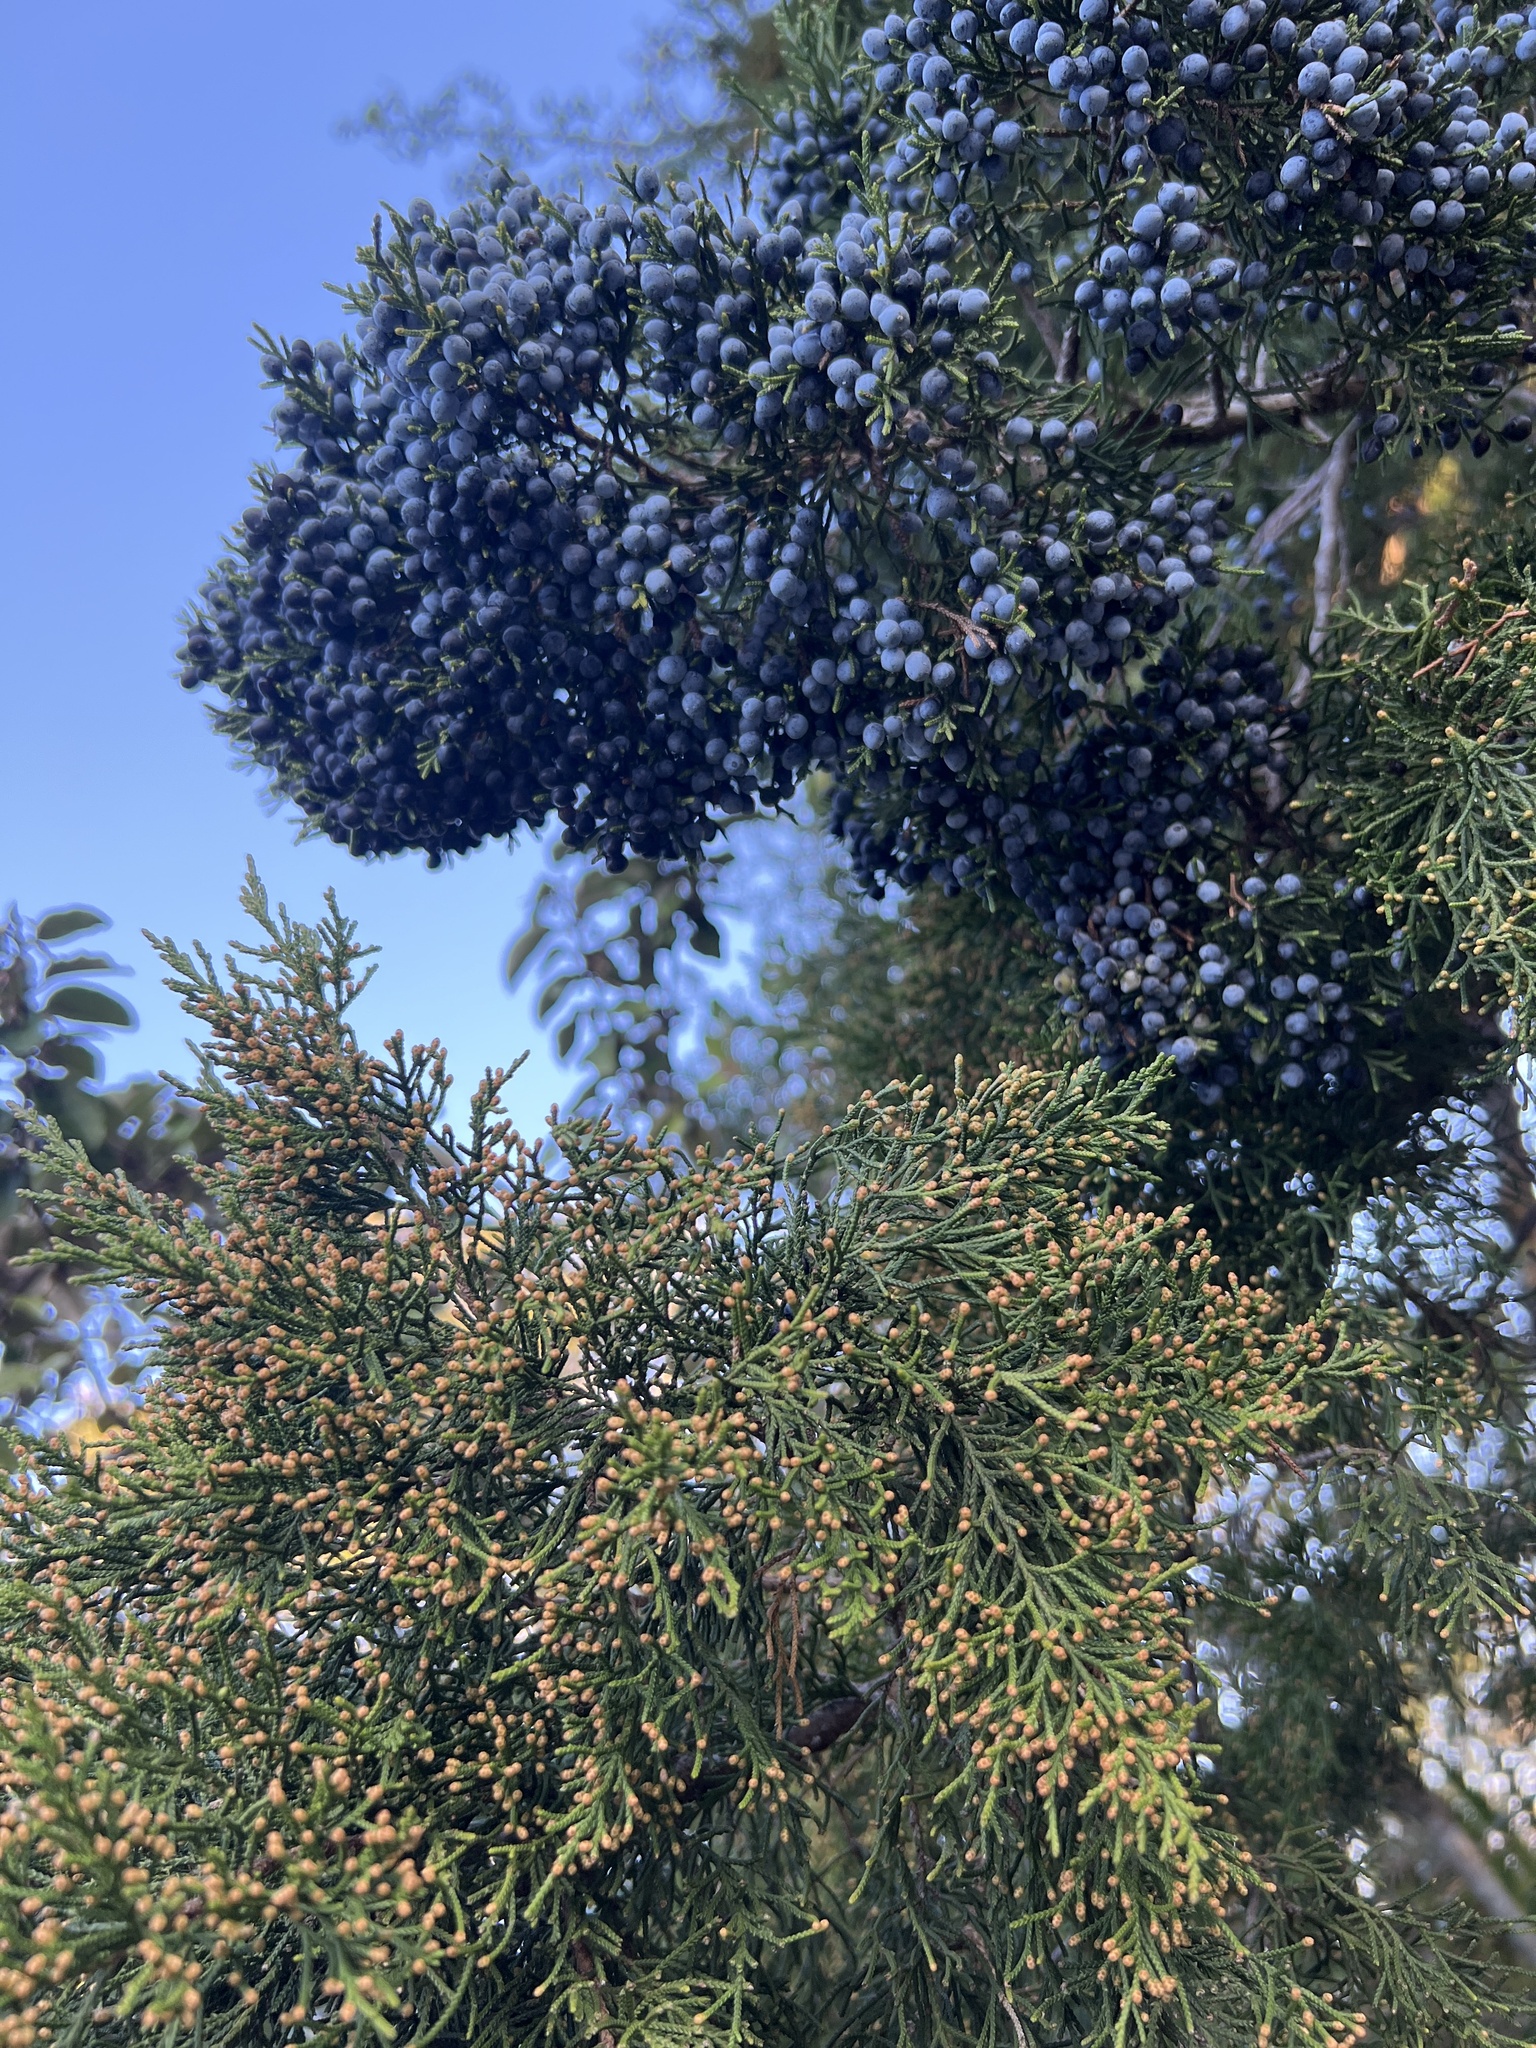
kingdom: Plantae
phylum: Tracheophyta
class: Pinopsida
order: Pinales
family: Cupressaceae
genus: Juniperus
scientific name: Juniperus virginiana
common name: Red juniper
